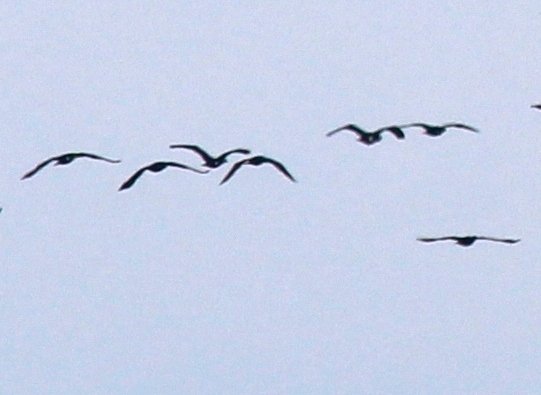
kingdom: Animalia
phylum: Chordata
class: Aves
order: Suliformes
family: Phalacrocoracidae
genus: Phalacrocorax
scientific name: Phalacrocorax carbo
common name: Great cormorant
